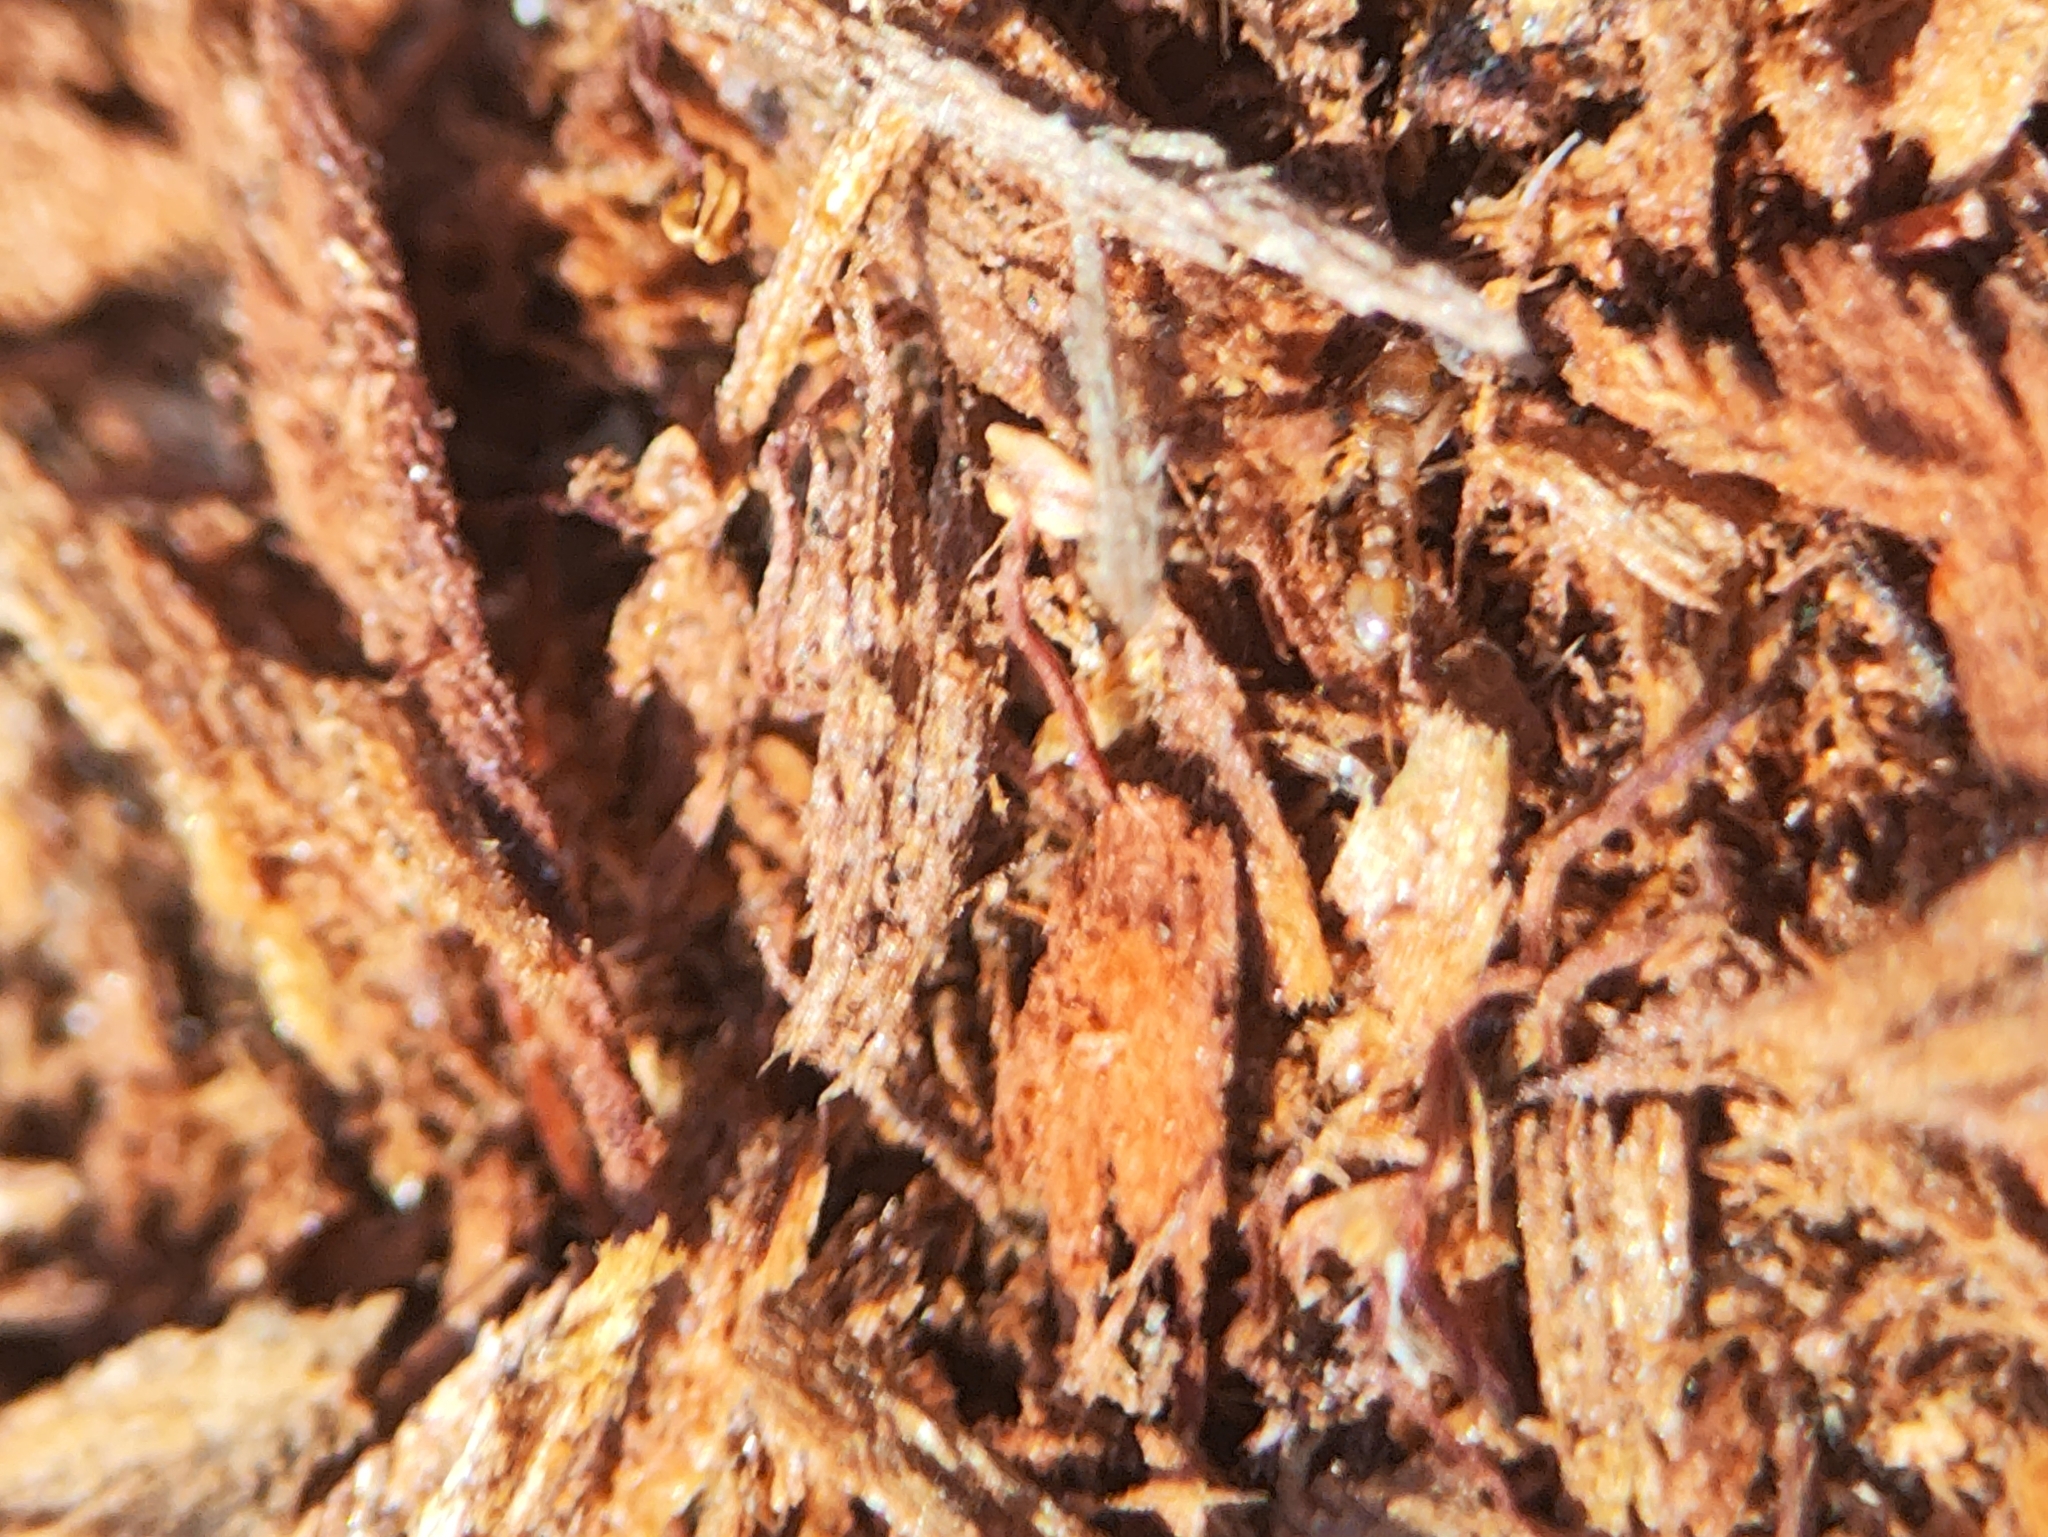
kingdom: Animalia
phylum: Arthropoda
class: Insecta
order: Hymenoptera
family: Formicidae
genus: Cardiocondyla
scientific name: Cardiocondyla wroughtonii
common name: Yellow sneaking ant
